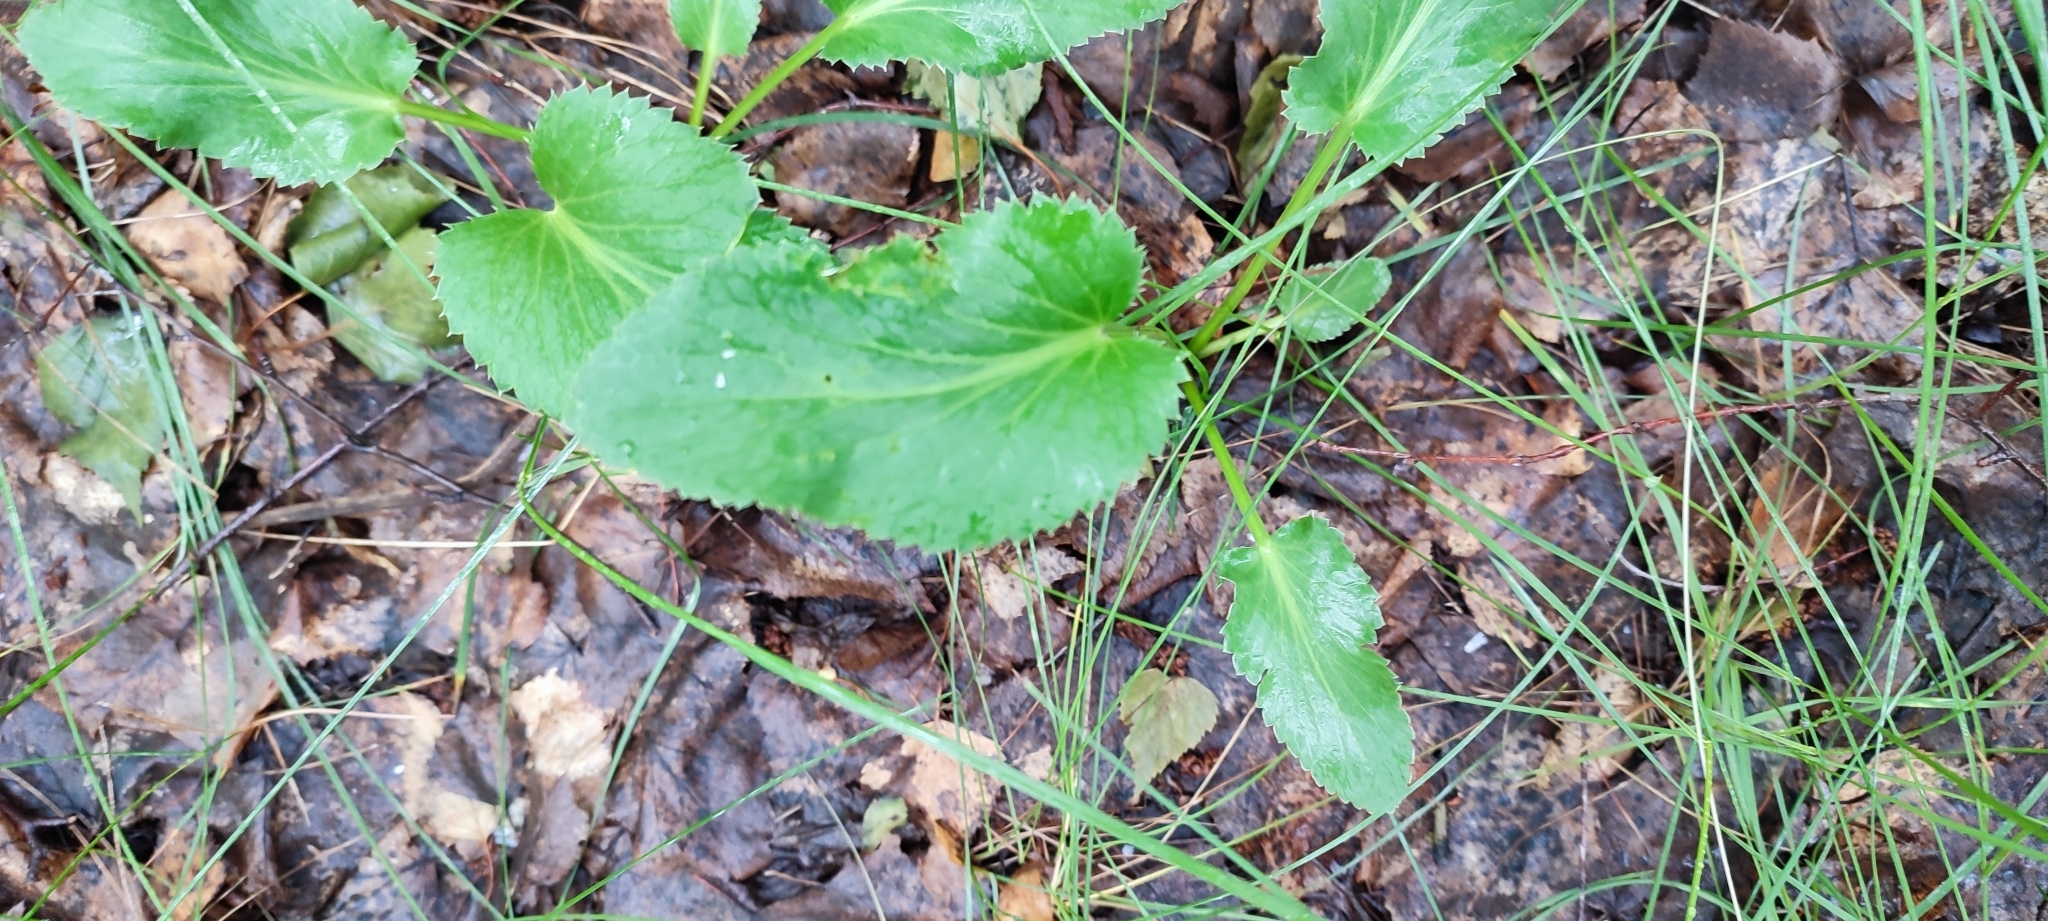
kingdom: Plantae
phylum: Tracheophyta
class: Magnoliopsida
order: Apiales
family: Apiaceae
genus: Eryngium
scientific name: Eryngium planum
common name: Blue eryngo
